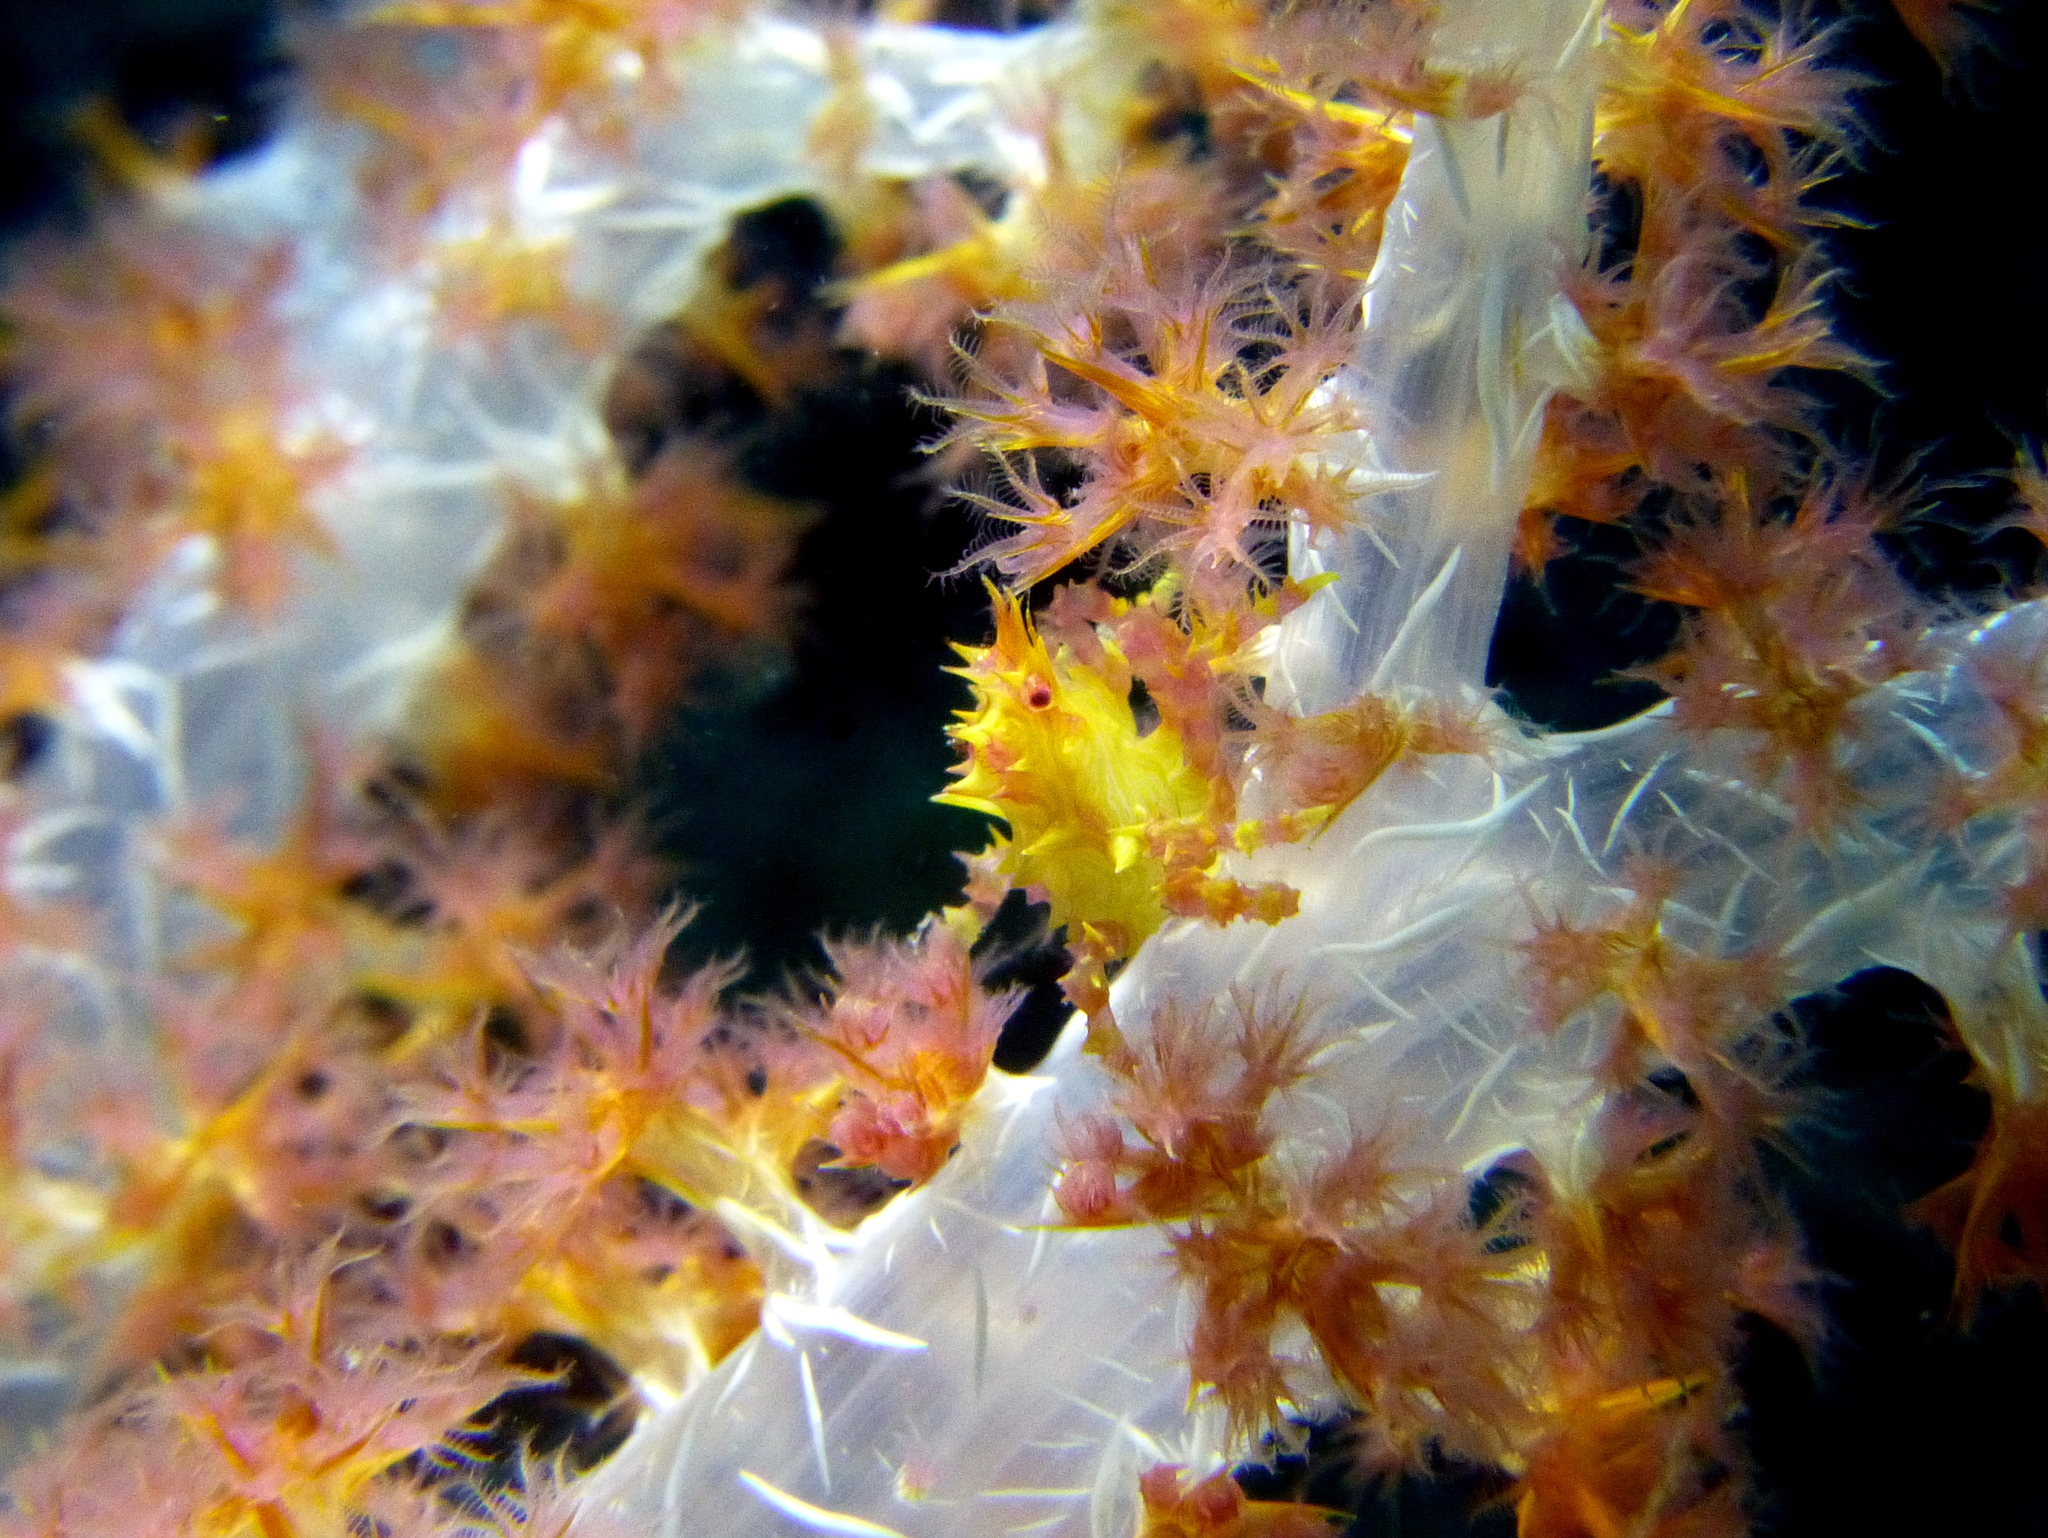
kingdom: Animalia
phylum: Arthropoda
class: Malacostraca
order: Decapoda
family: Epialtidae
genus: Hoplophrys
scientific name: Hoplophrys oatesii
